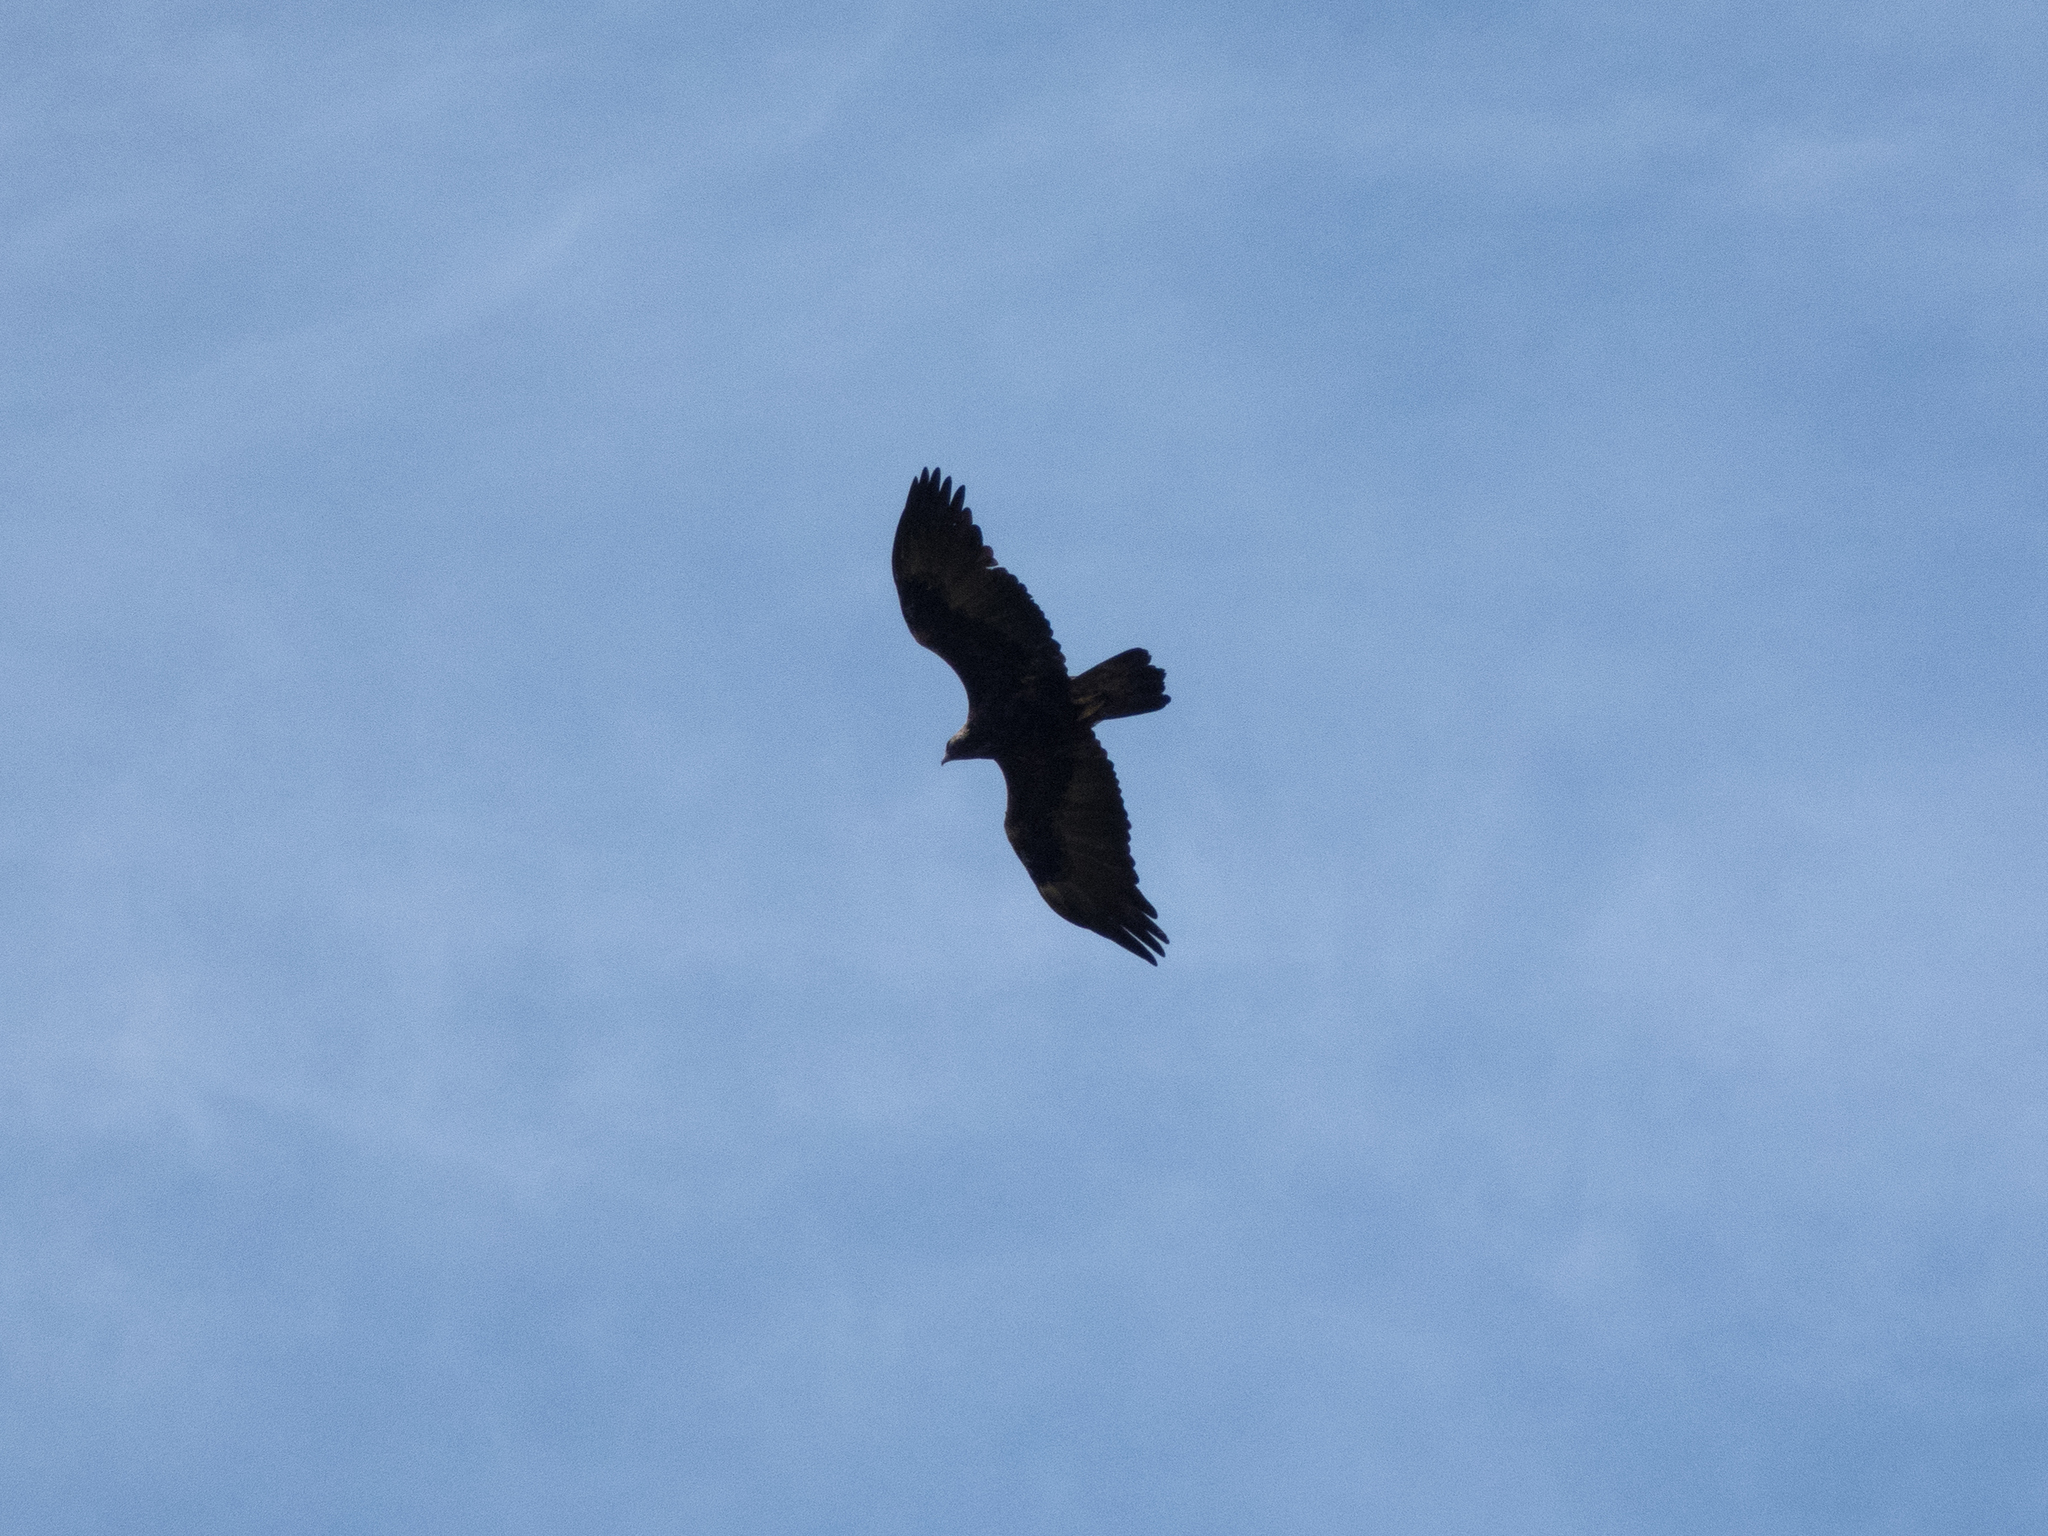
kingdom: Animalia
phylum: Chordata
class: Aves
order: Accipitriformes
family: Accipitridae
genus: Aquila
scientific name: Aquila chrysaetos
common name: Golden eagle
